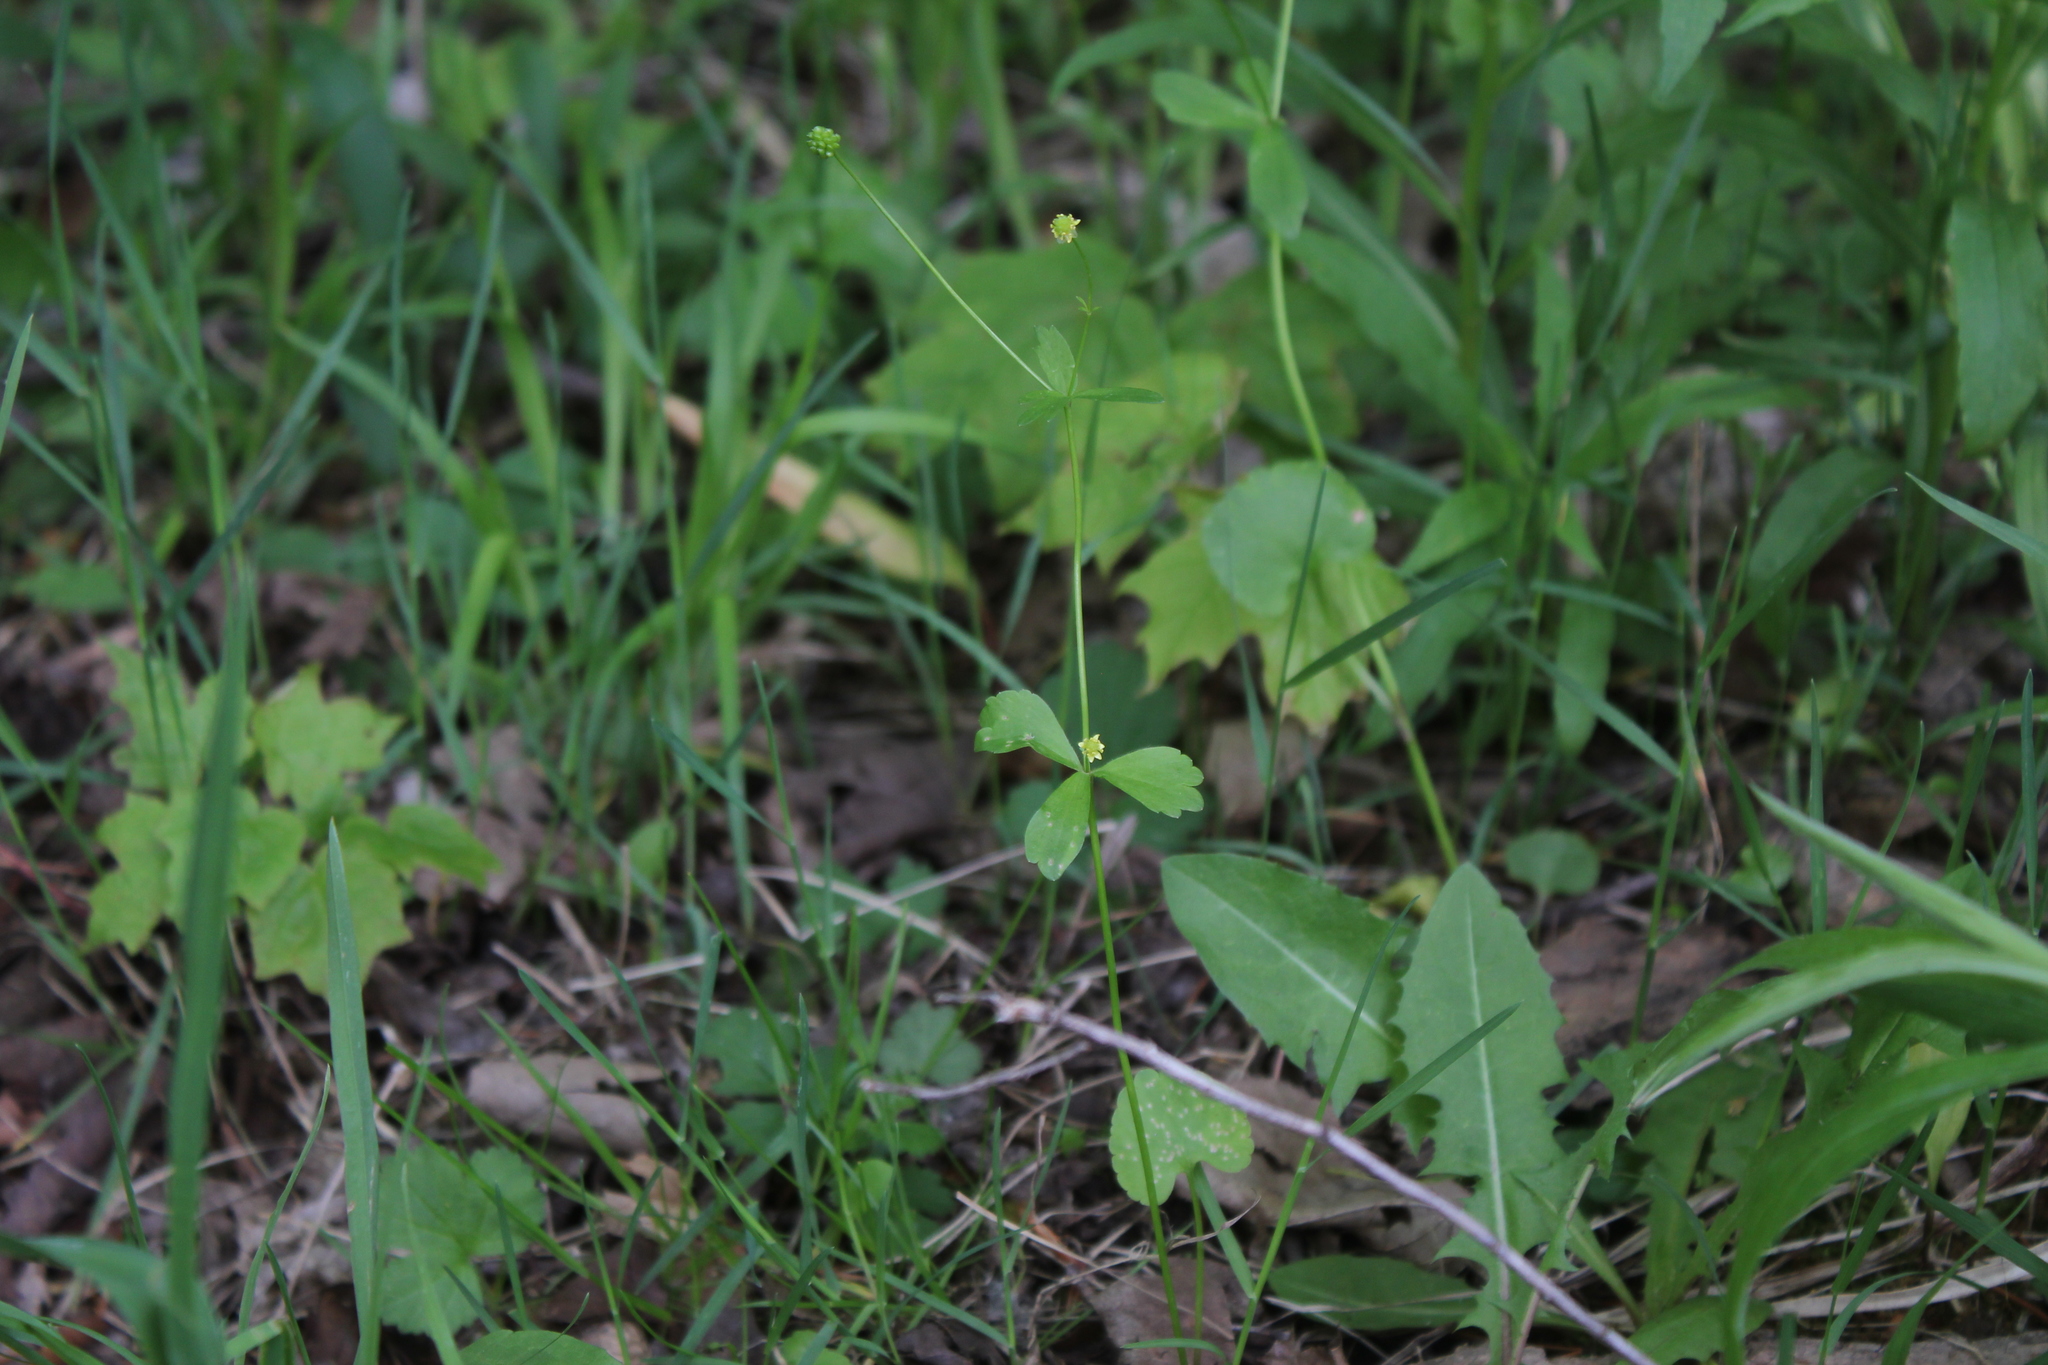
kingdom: Plantae
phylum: Tracheophyta
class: Magnoliopsida
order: Ranunculales
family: Ranunculaceae
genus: Ranunculus
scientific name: Ranunculus abortivus
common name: Early wood buttercup
